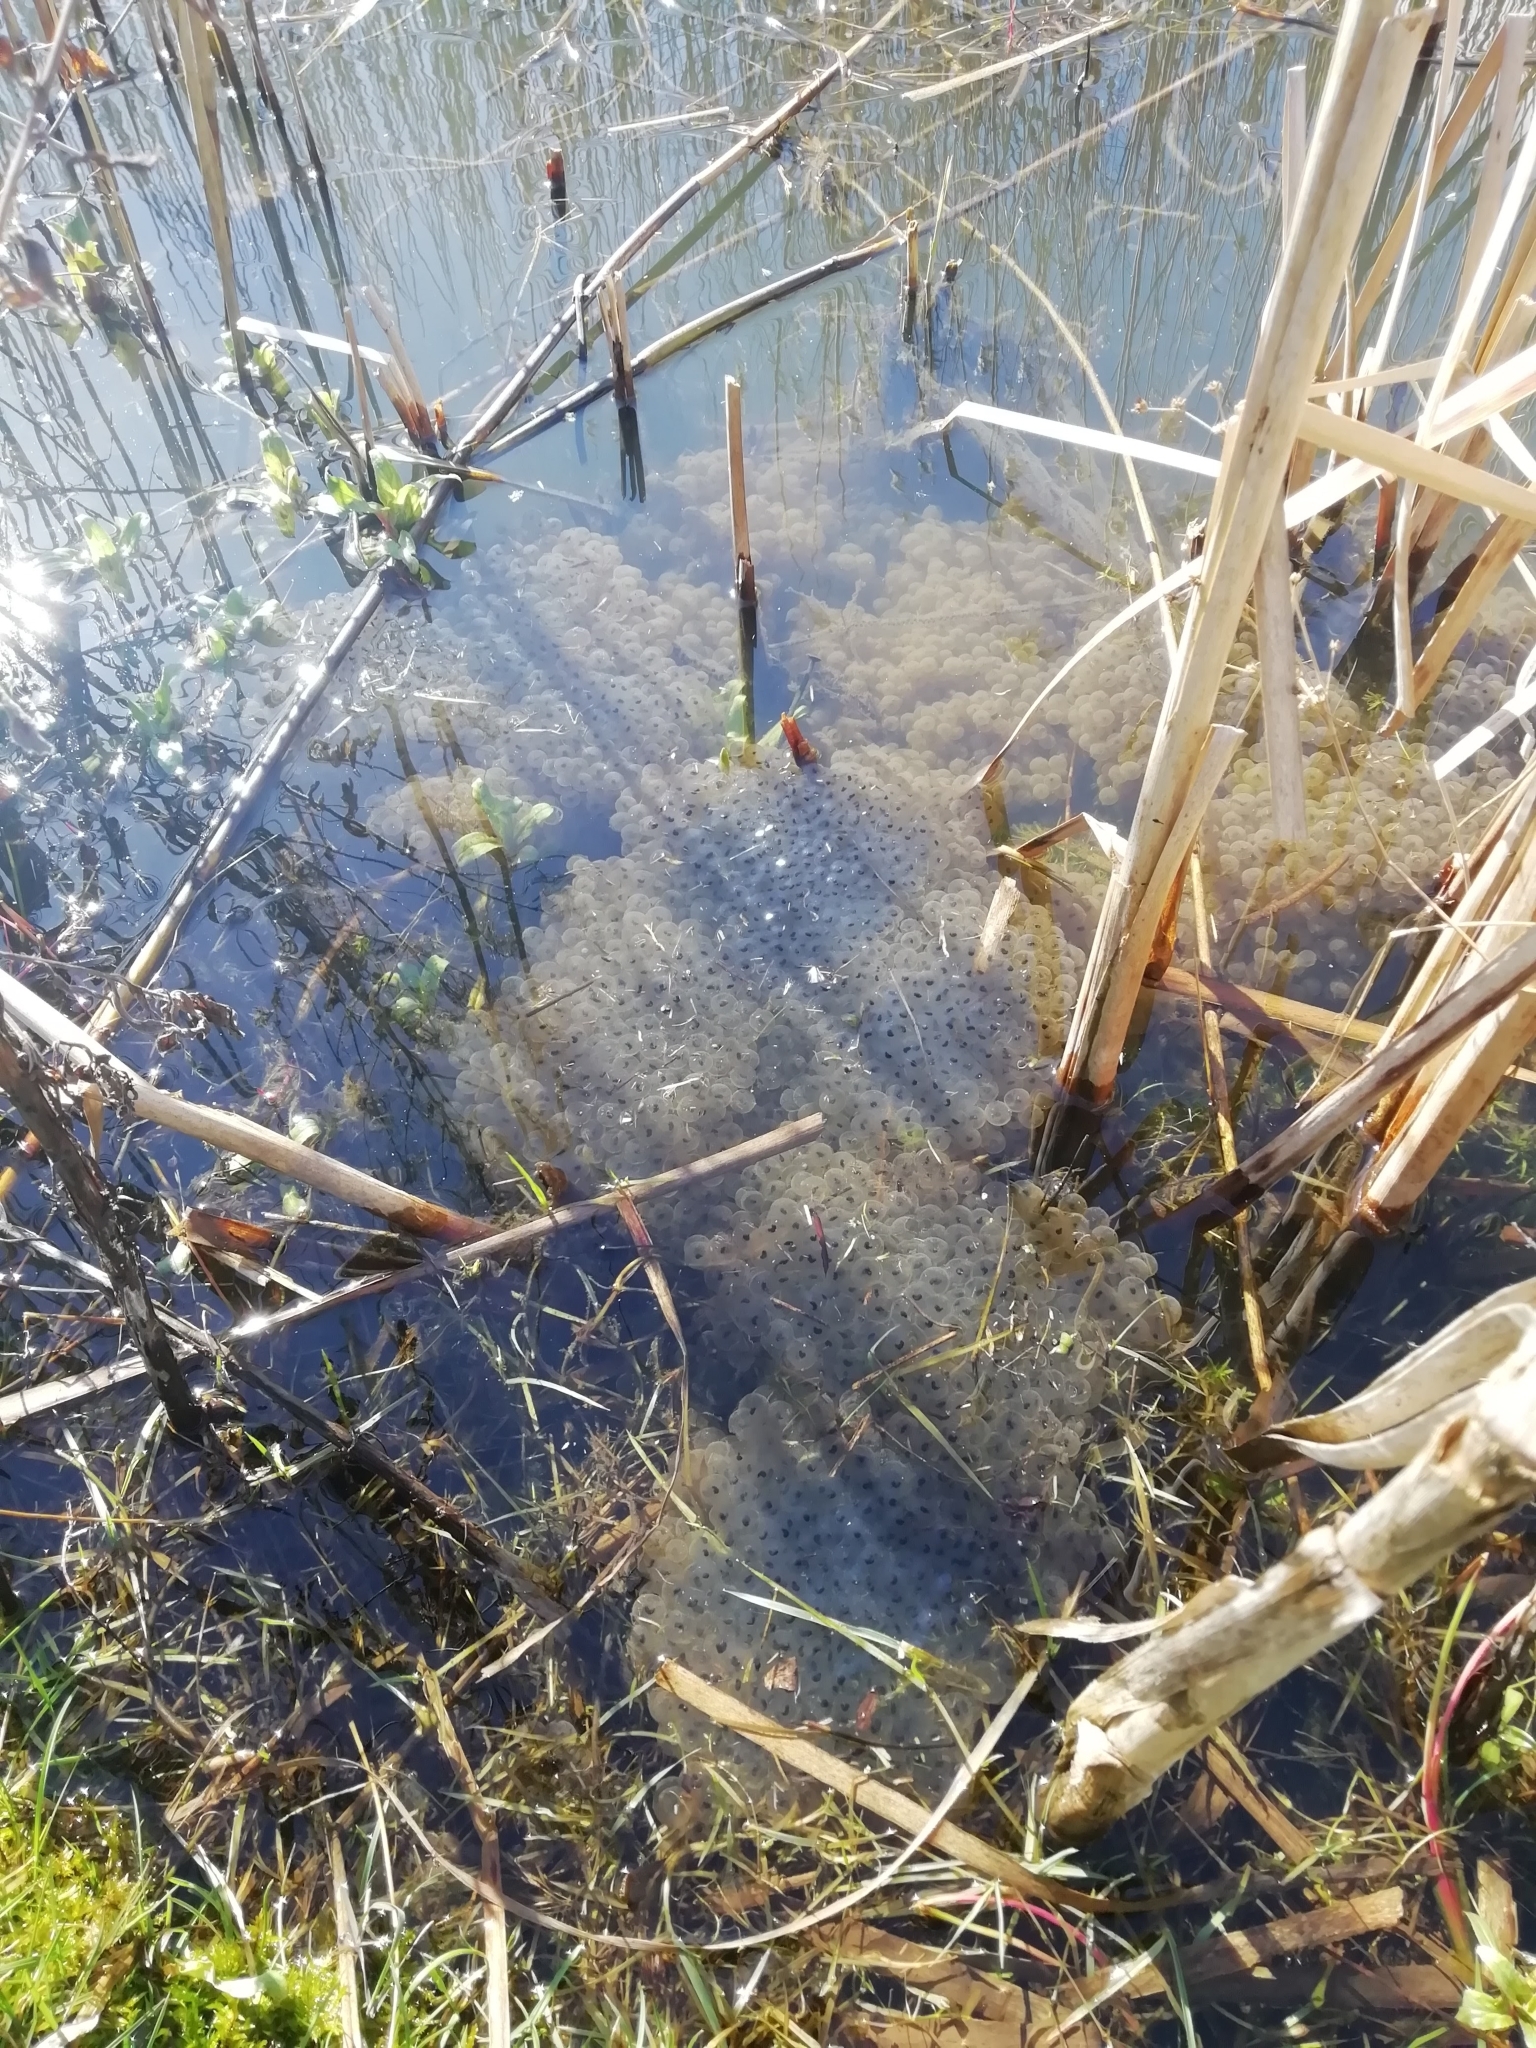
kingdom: Animalia
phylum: Chordata
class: Amphibia
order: Anura
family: Ranidae
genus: Rana
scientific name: Rana temporaria
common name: Common frog
